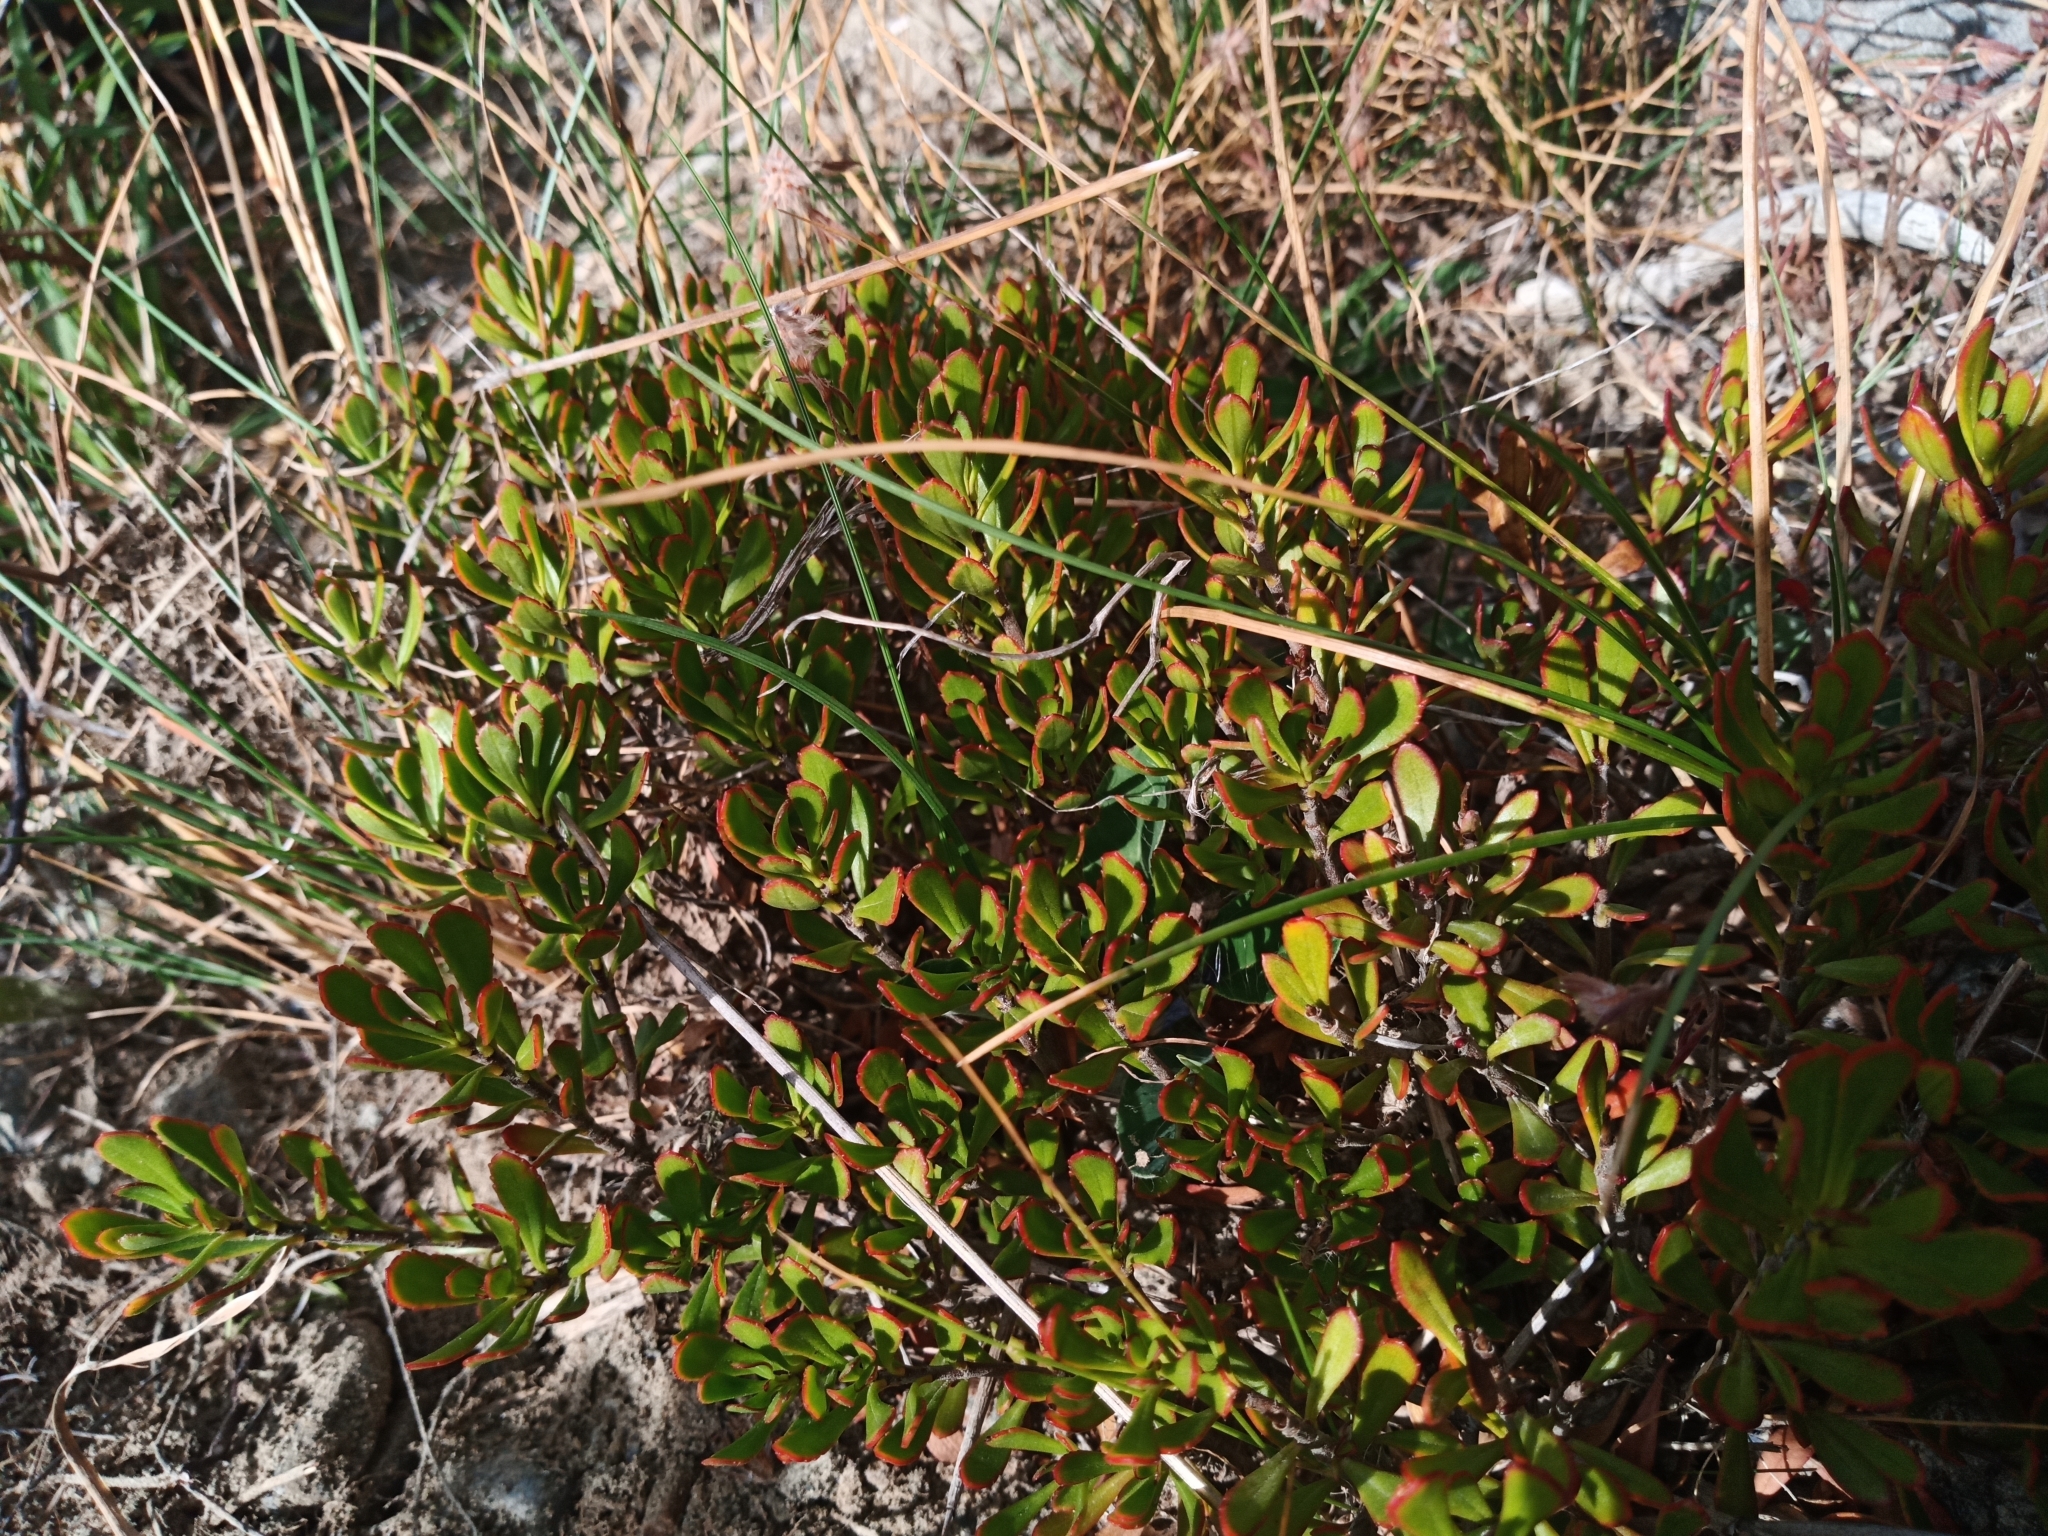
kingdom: Plantae
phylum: Tracheophyta
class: Magnoliopsida
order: Lamiales
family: Plantaginaceae
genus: Veronica
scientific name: Veronica raoulii
